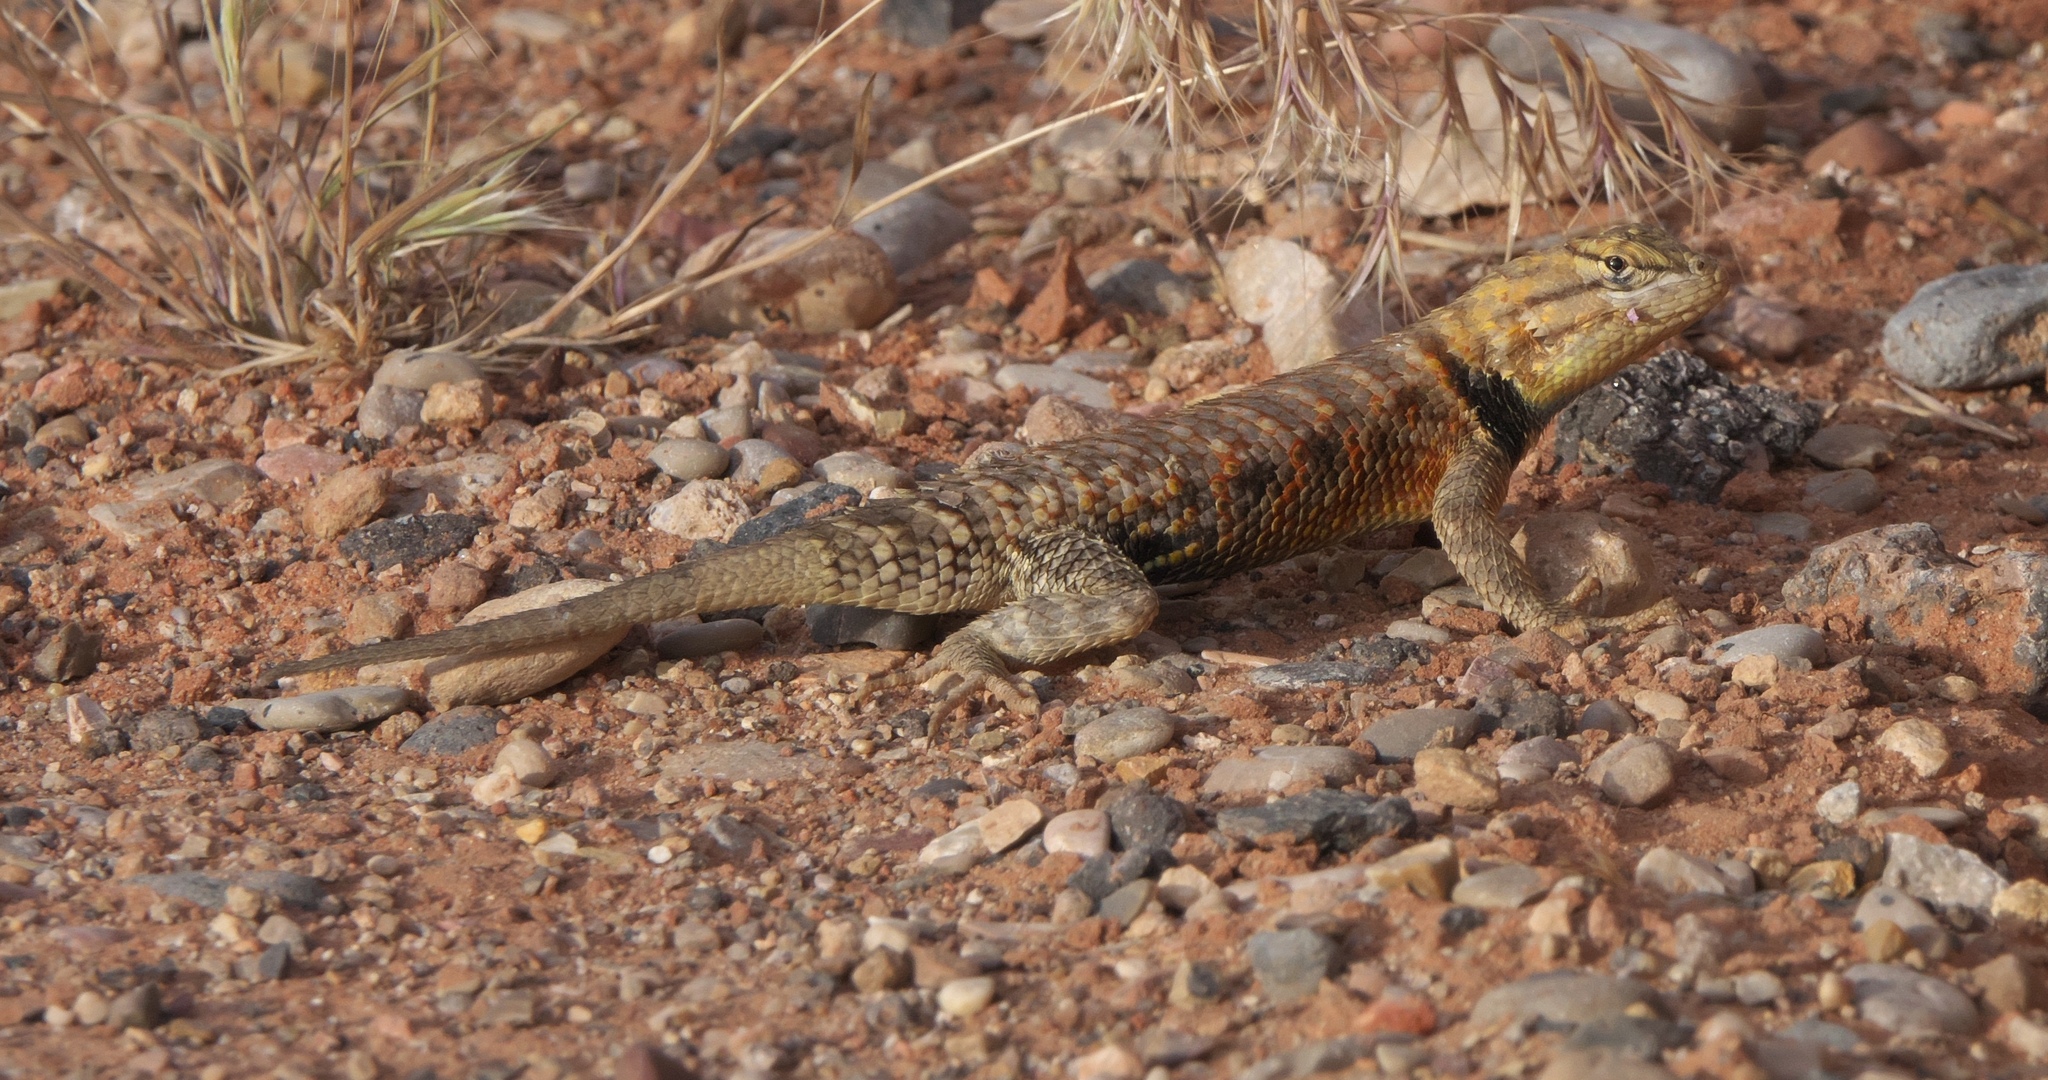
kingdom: Animalia
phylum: Chordata
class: Squamata
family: Phrynosomatidae
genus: Sceloporus
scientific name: Sceloporus uniformis
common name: Yellow-backed spiny lizard
